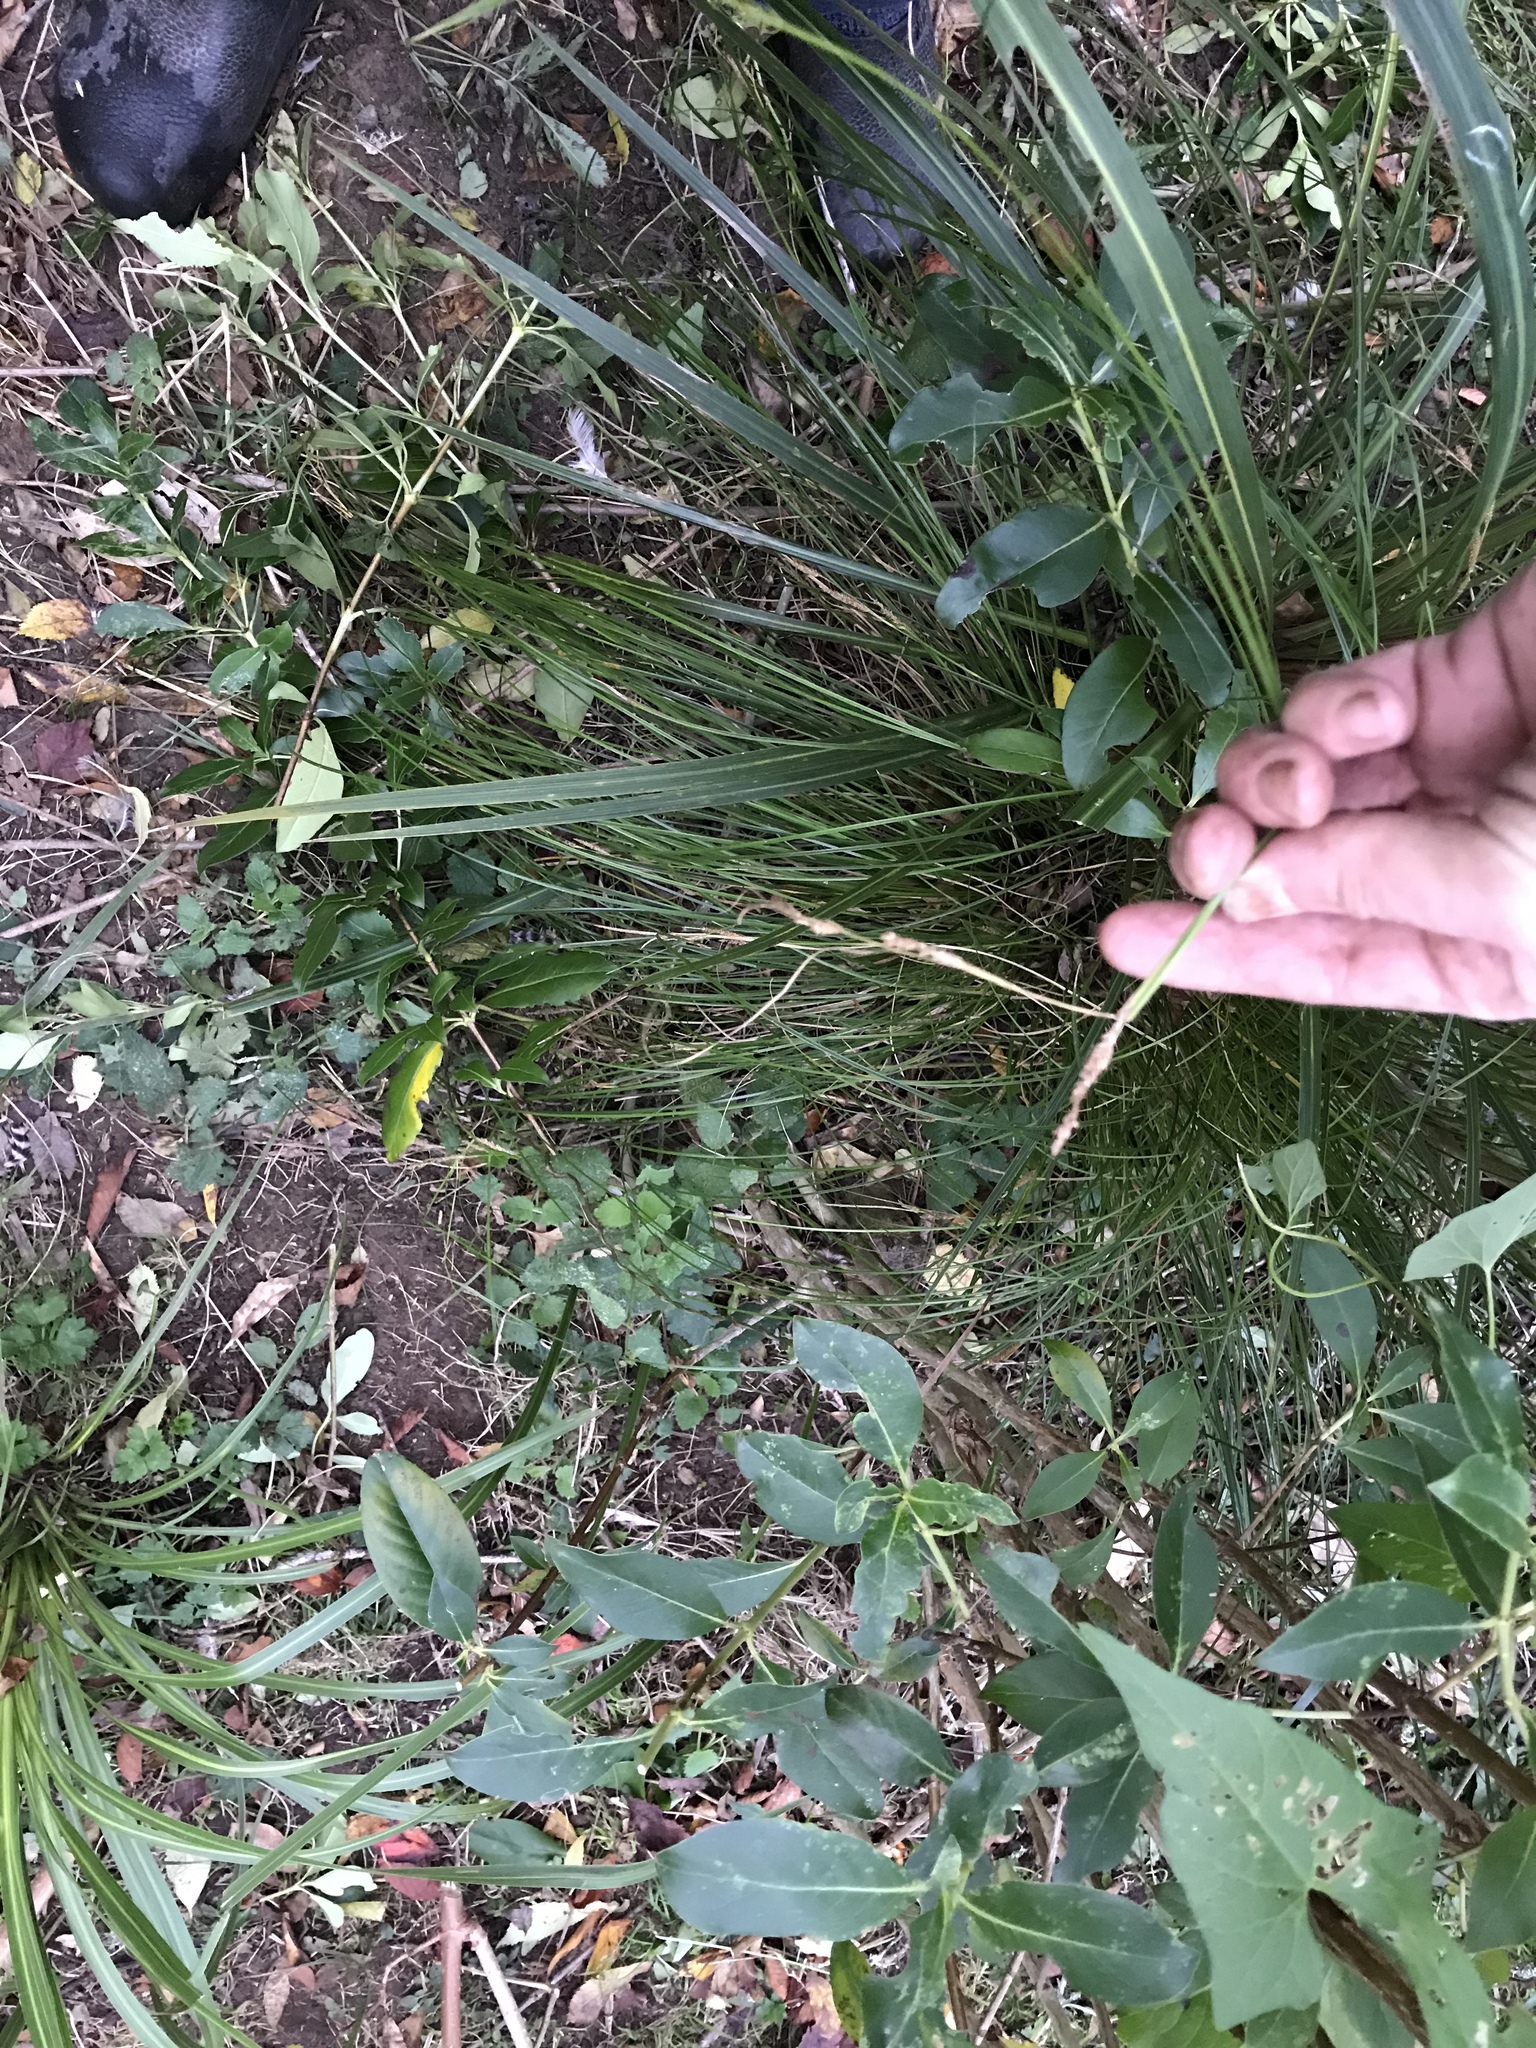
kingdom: Plantae
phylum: Tracheophyta
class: Liliopsida
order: Poales
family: Cyperaceae
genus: Carex
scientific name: Carex secta
